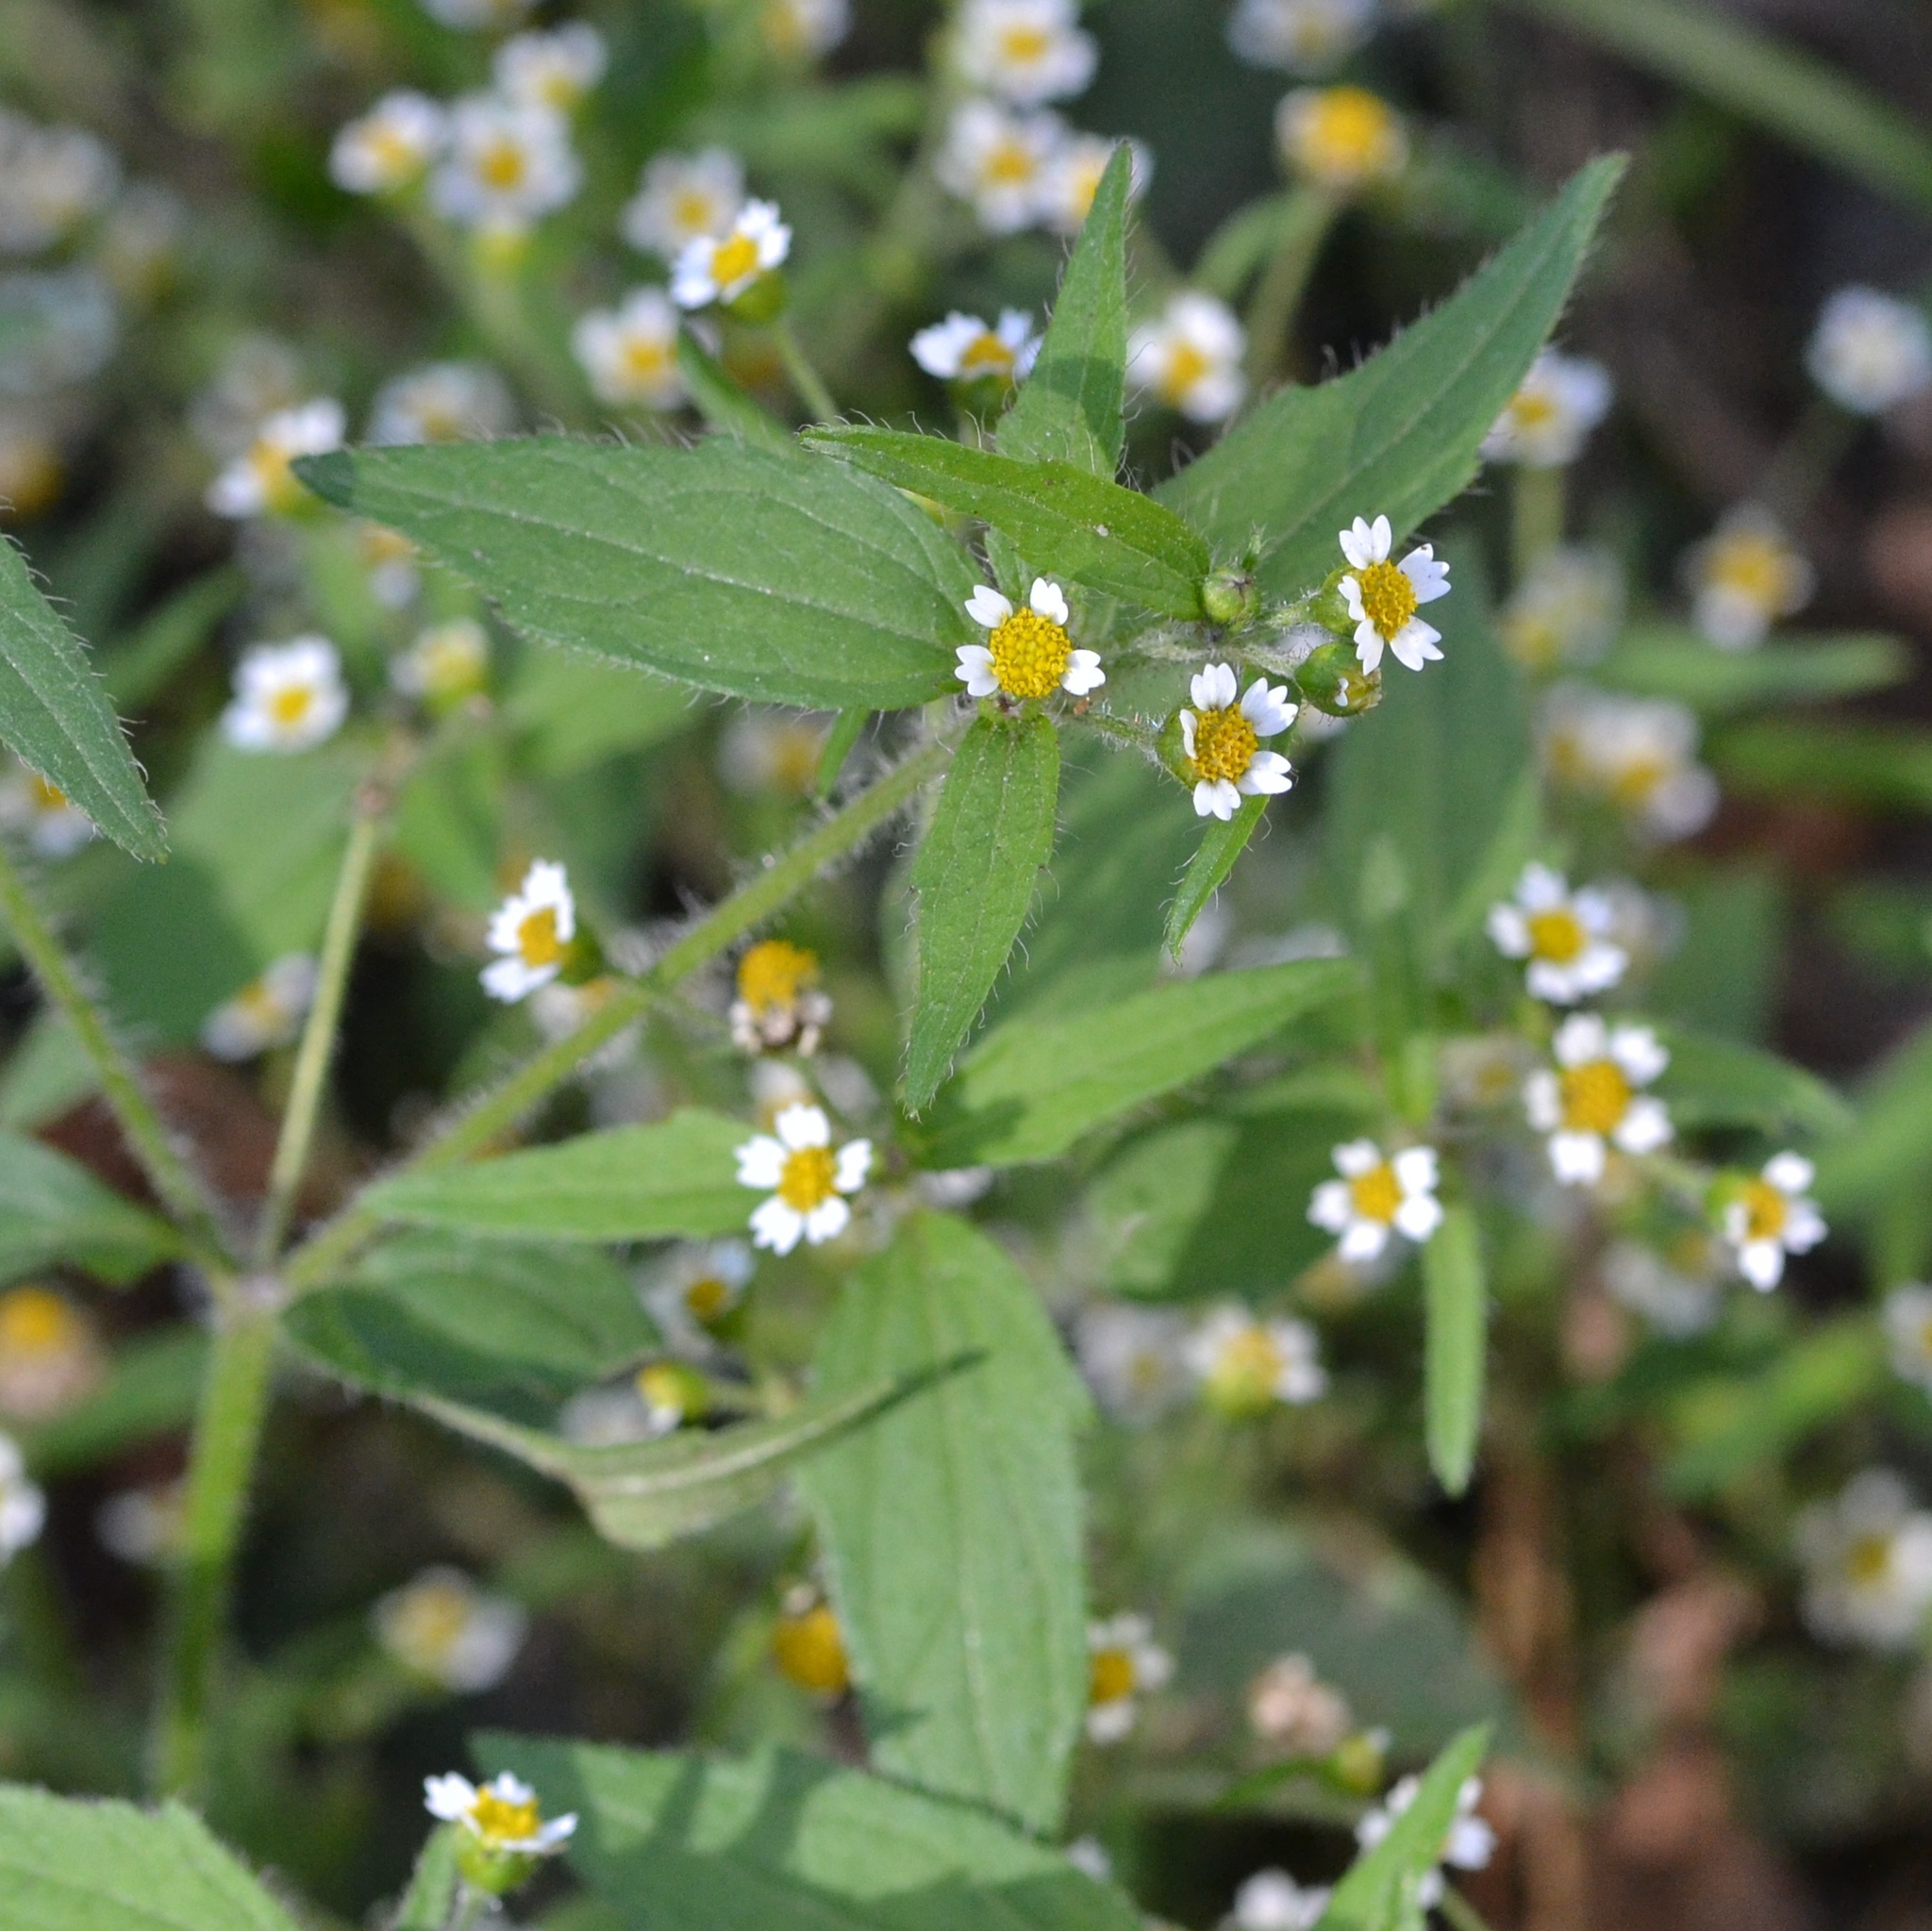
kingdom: Plantae
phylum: Tracheophyta
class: Magnoliopsida
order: Asterales
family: Asteraceae
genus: Galinsoga
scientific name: Galinsoga quadriradiata
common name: Shaggy soldier
